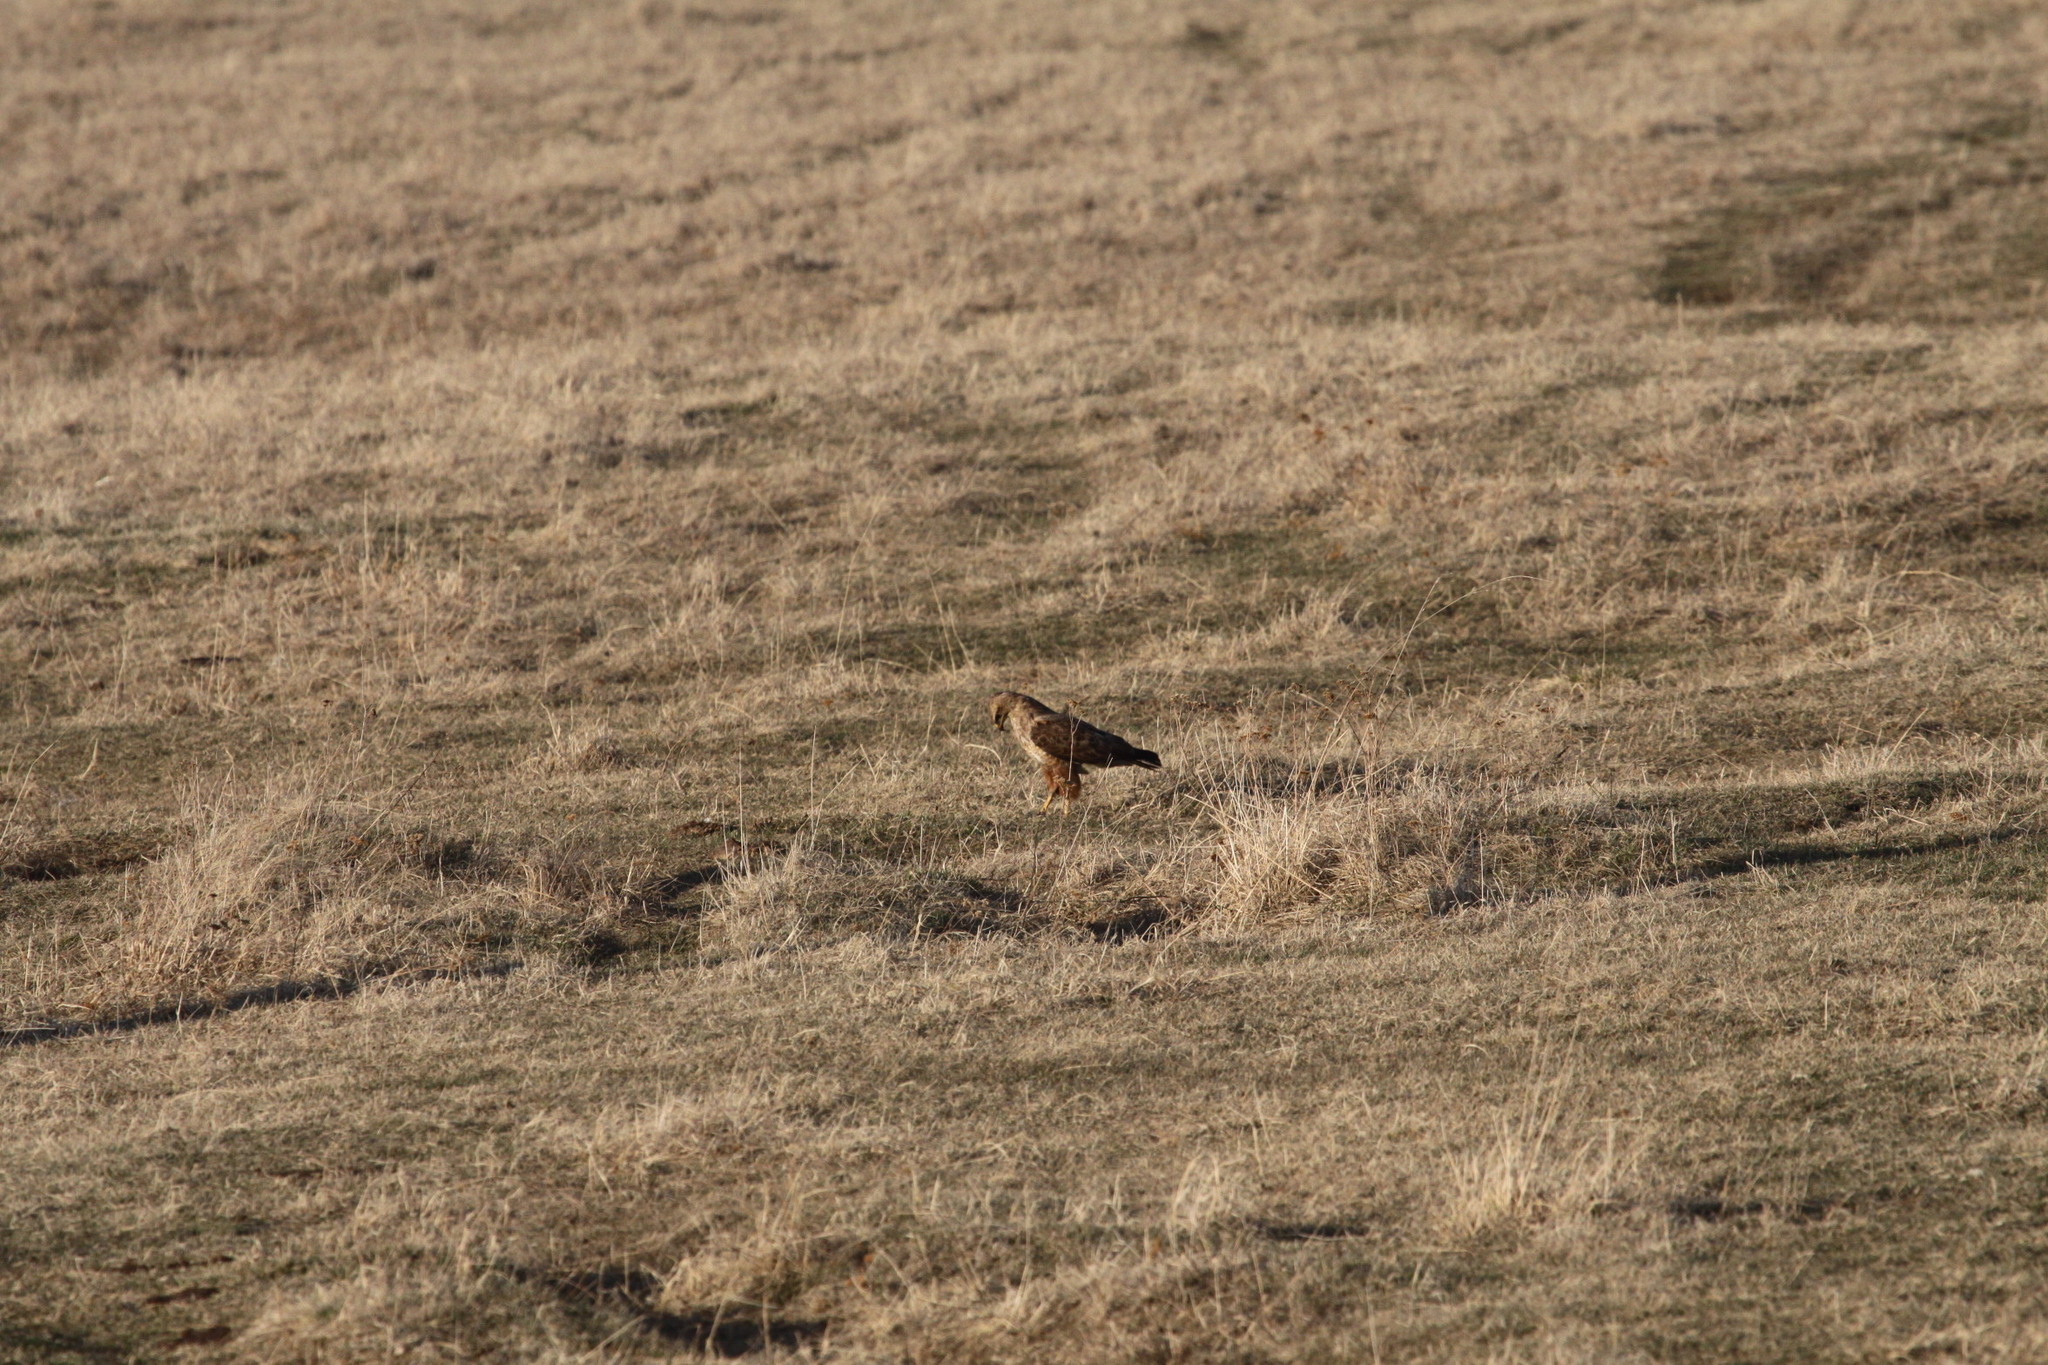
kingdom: Animalia
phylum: Chordata
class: Aves
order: Accipitriformes
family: Accipitridae
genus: Buteo
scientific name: Buteo buteo
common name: Common buzzard
